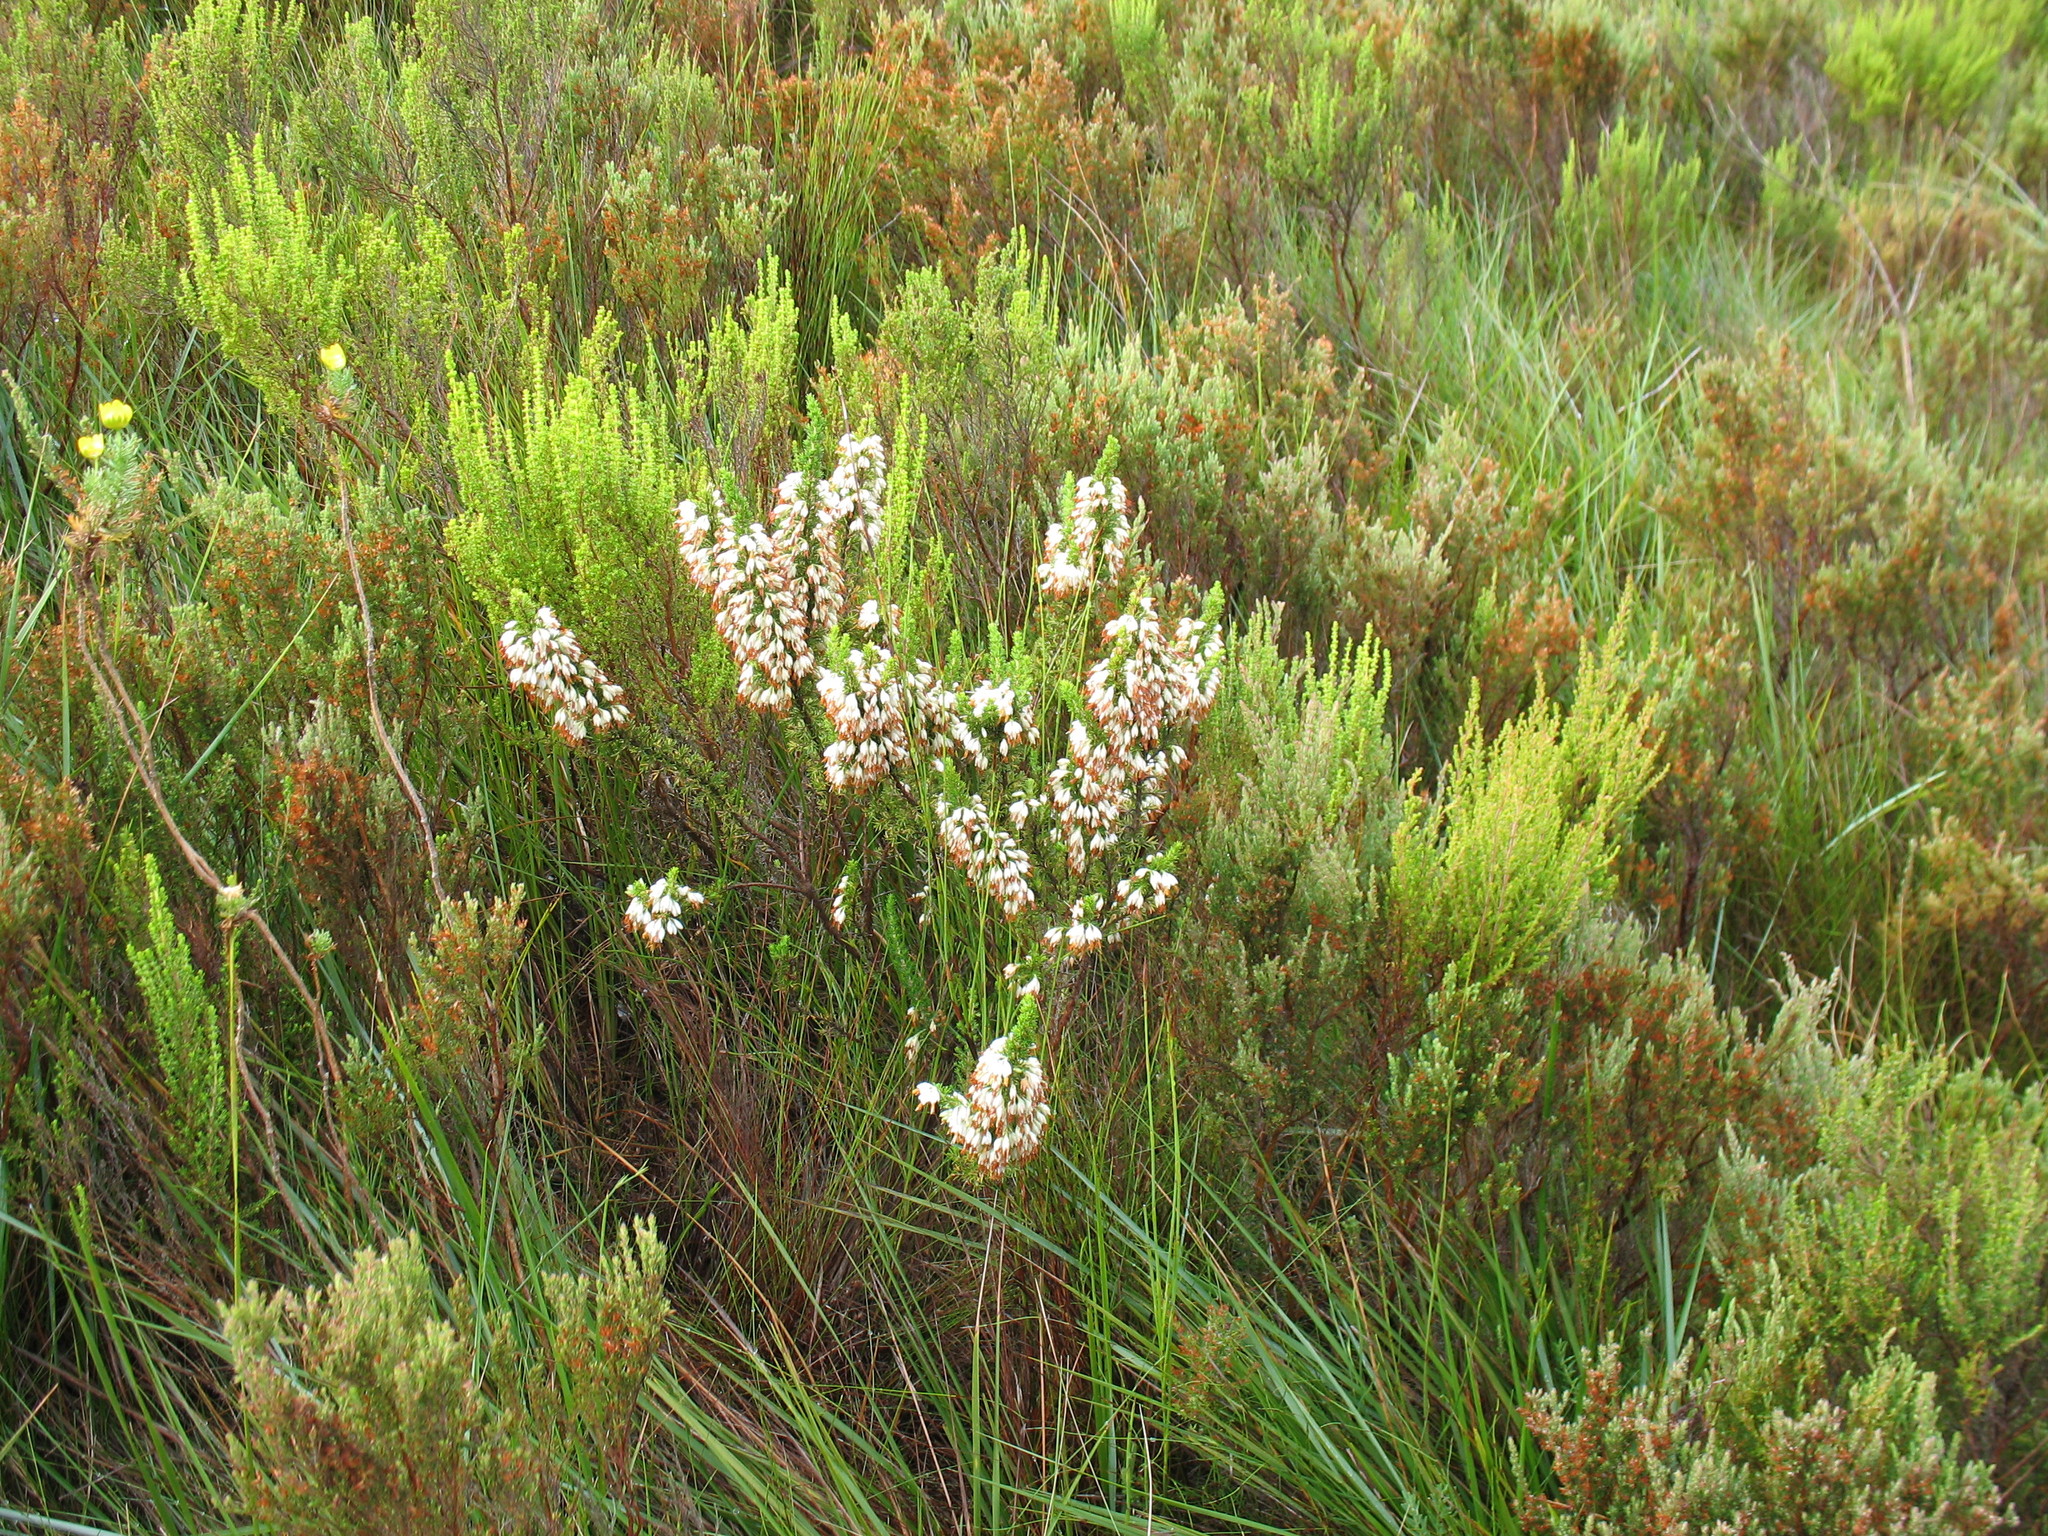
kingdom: Plantae
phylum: Tracheophyta
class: Magnoliopsida
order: Ericales
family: Ericaceae
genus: Erica
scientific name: Erica penicilliformis
